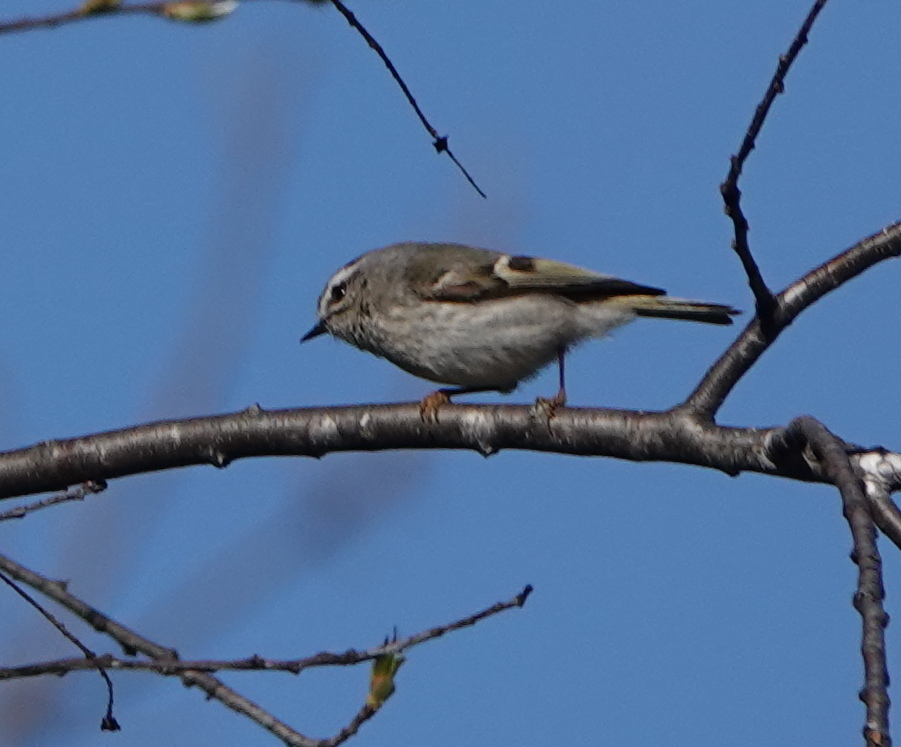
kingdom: Animalia
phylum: Chordata
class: Aves
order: Passeriformes
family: Regulidae
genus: Regulus
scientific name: Regulus satrapa
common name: Golden-crowned kinglet
